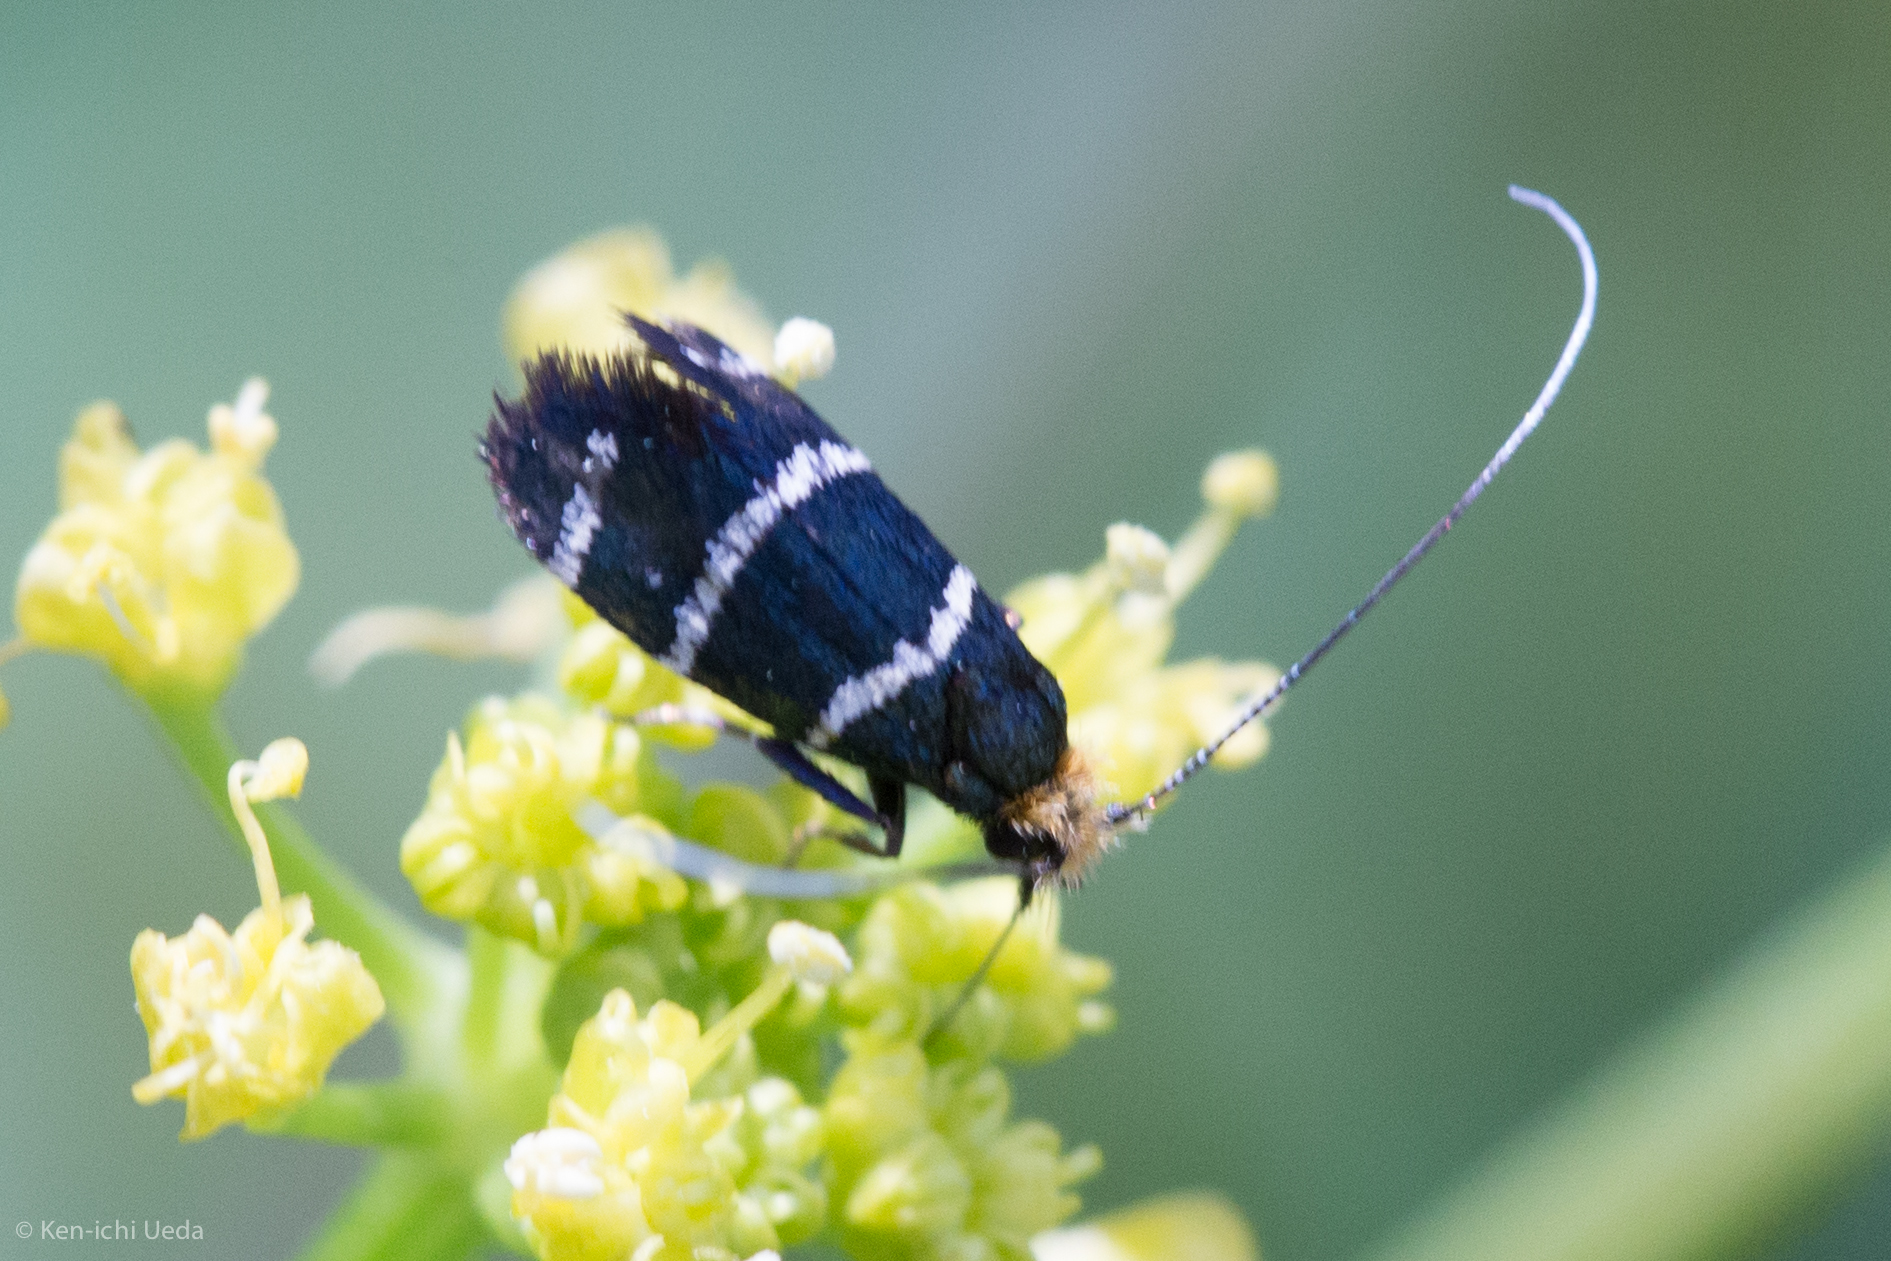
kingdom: Animalia
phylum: Arthropoda
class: Insecta
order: Lepidoptera
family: Adelidae
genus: Adela
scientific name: Adela trigrapha
